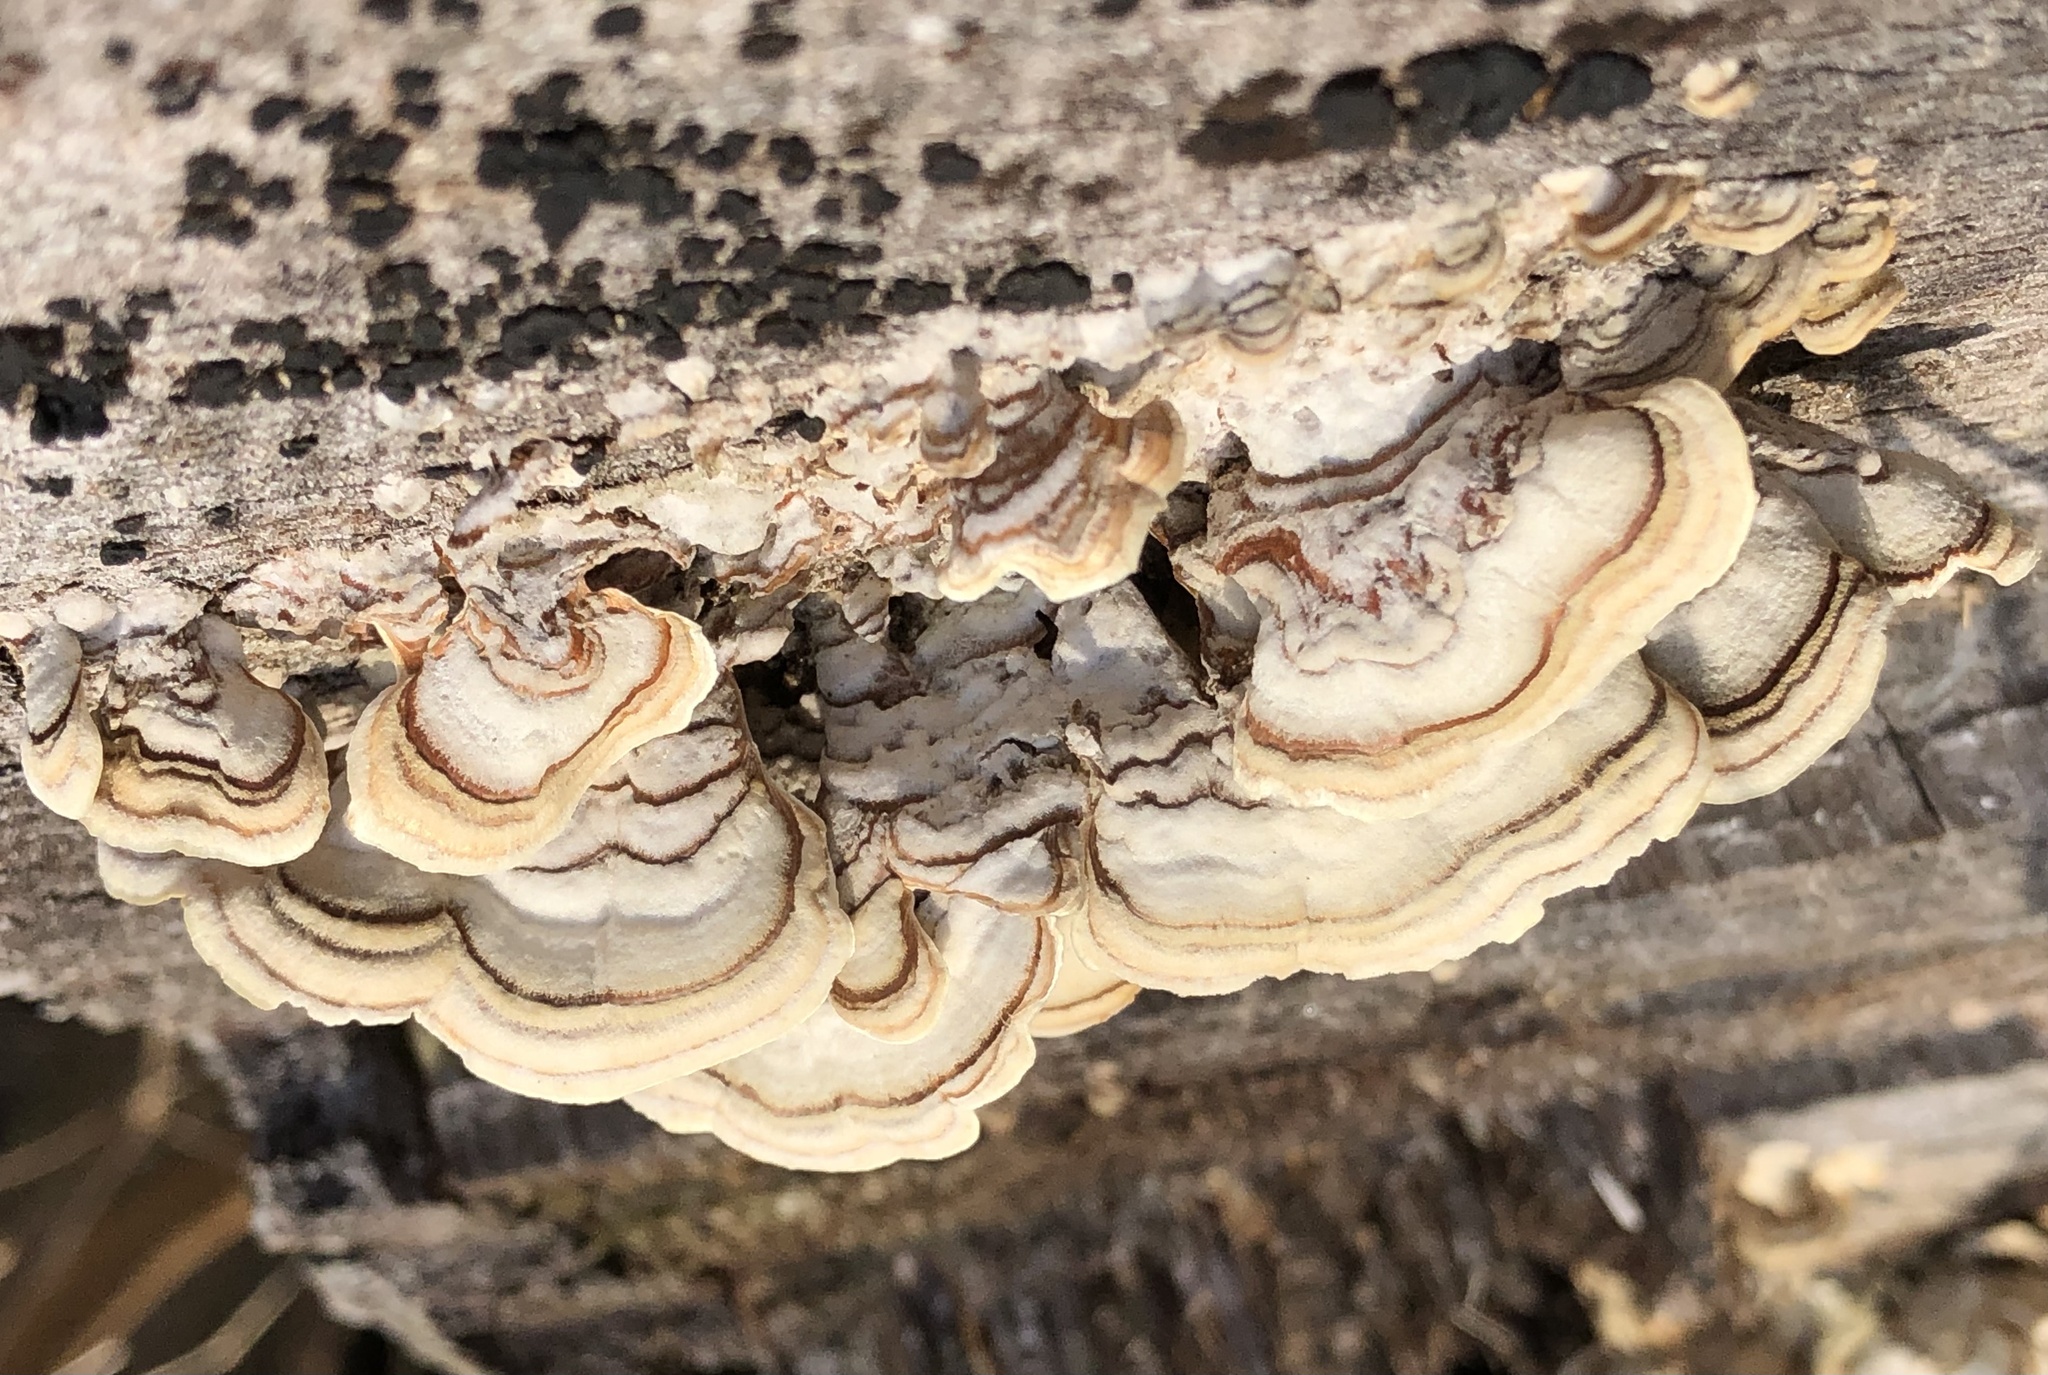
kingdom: Fungi
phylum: Basidiomycota
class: Agaricomycetes
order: Russulales
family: Stereaceae
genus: Stereum
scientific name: Stereum lobatum
